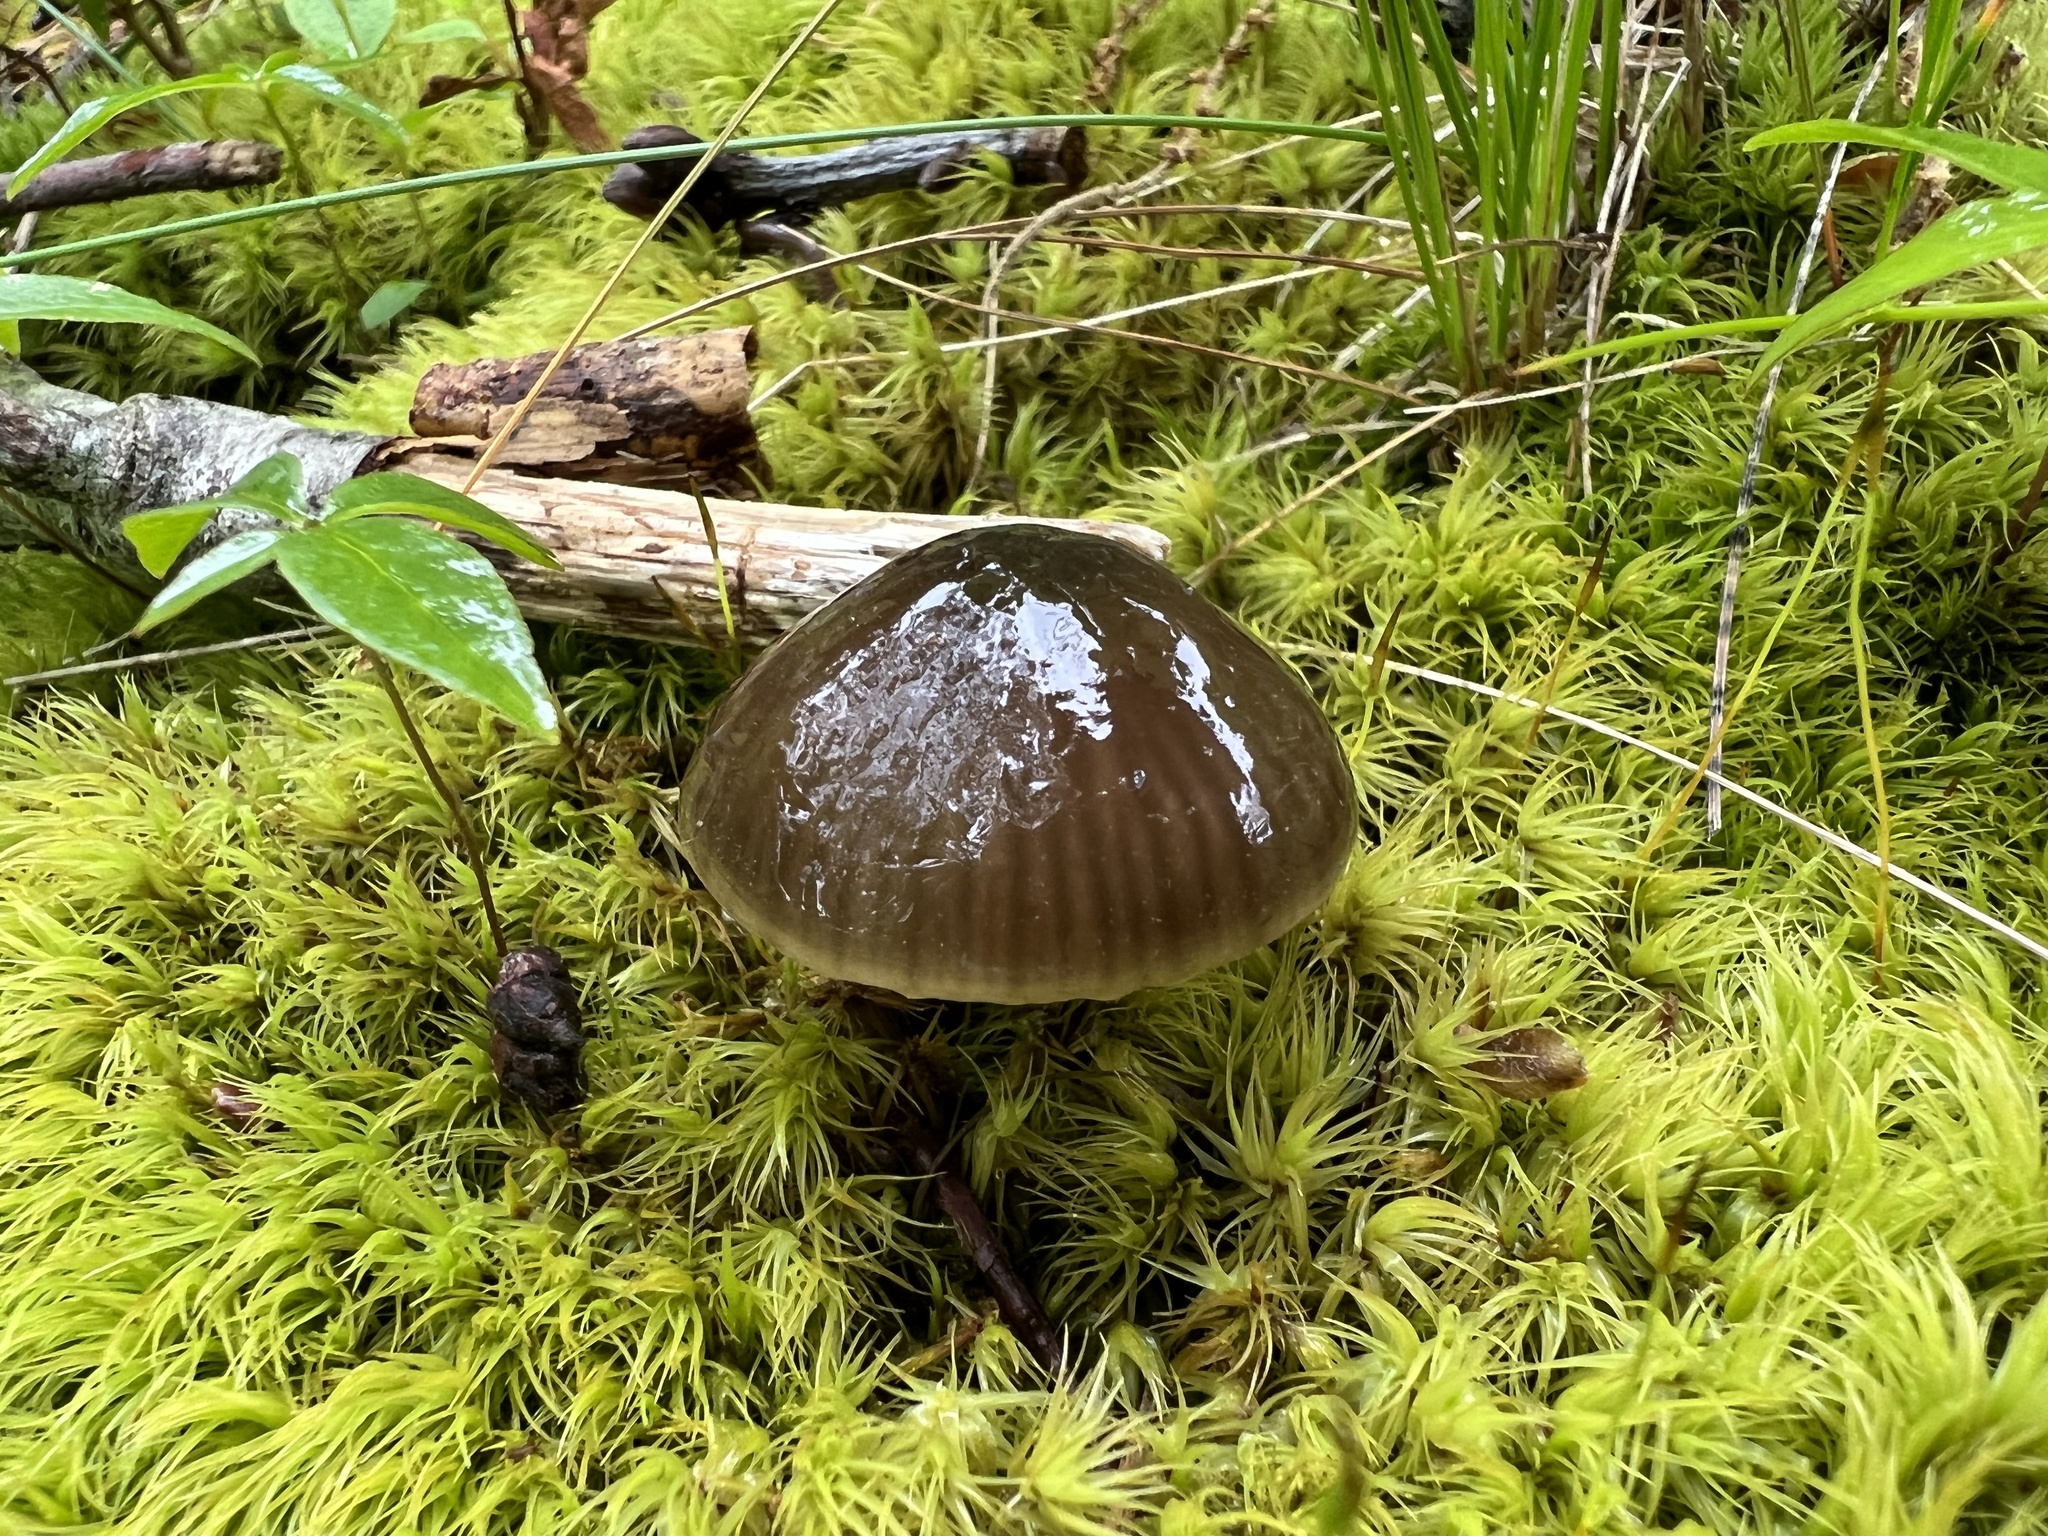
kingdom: Fungi
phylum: Basidiomycota
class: Agaricomycetes
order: Agaricales
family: Hygrophoraceae
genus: Gliophorus
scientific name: Gliophorus irrigatus
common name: Slimy waxcap
